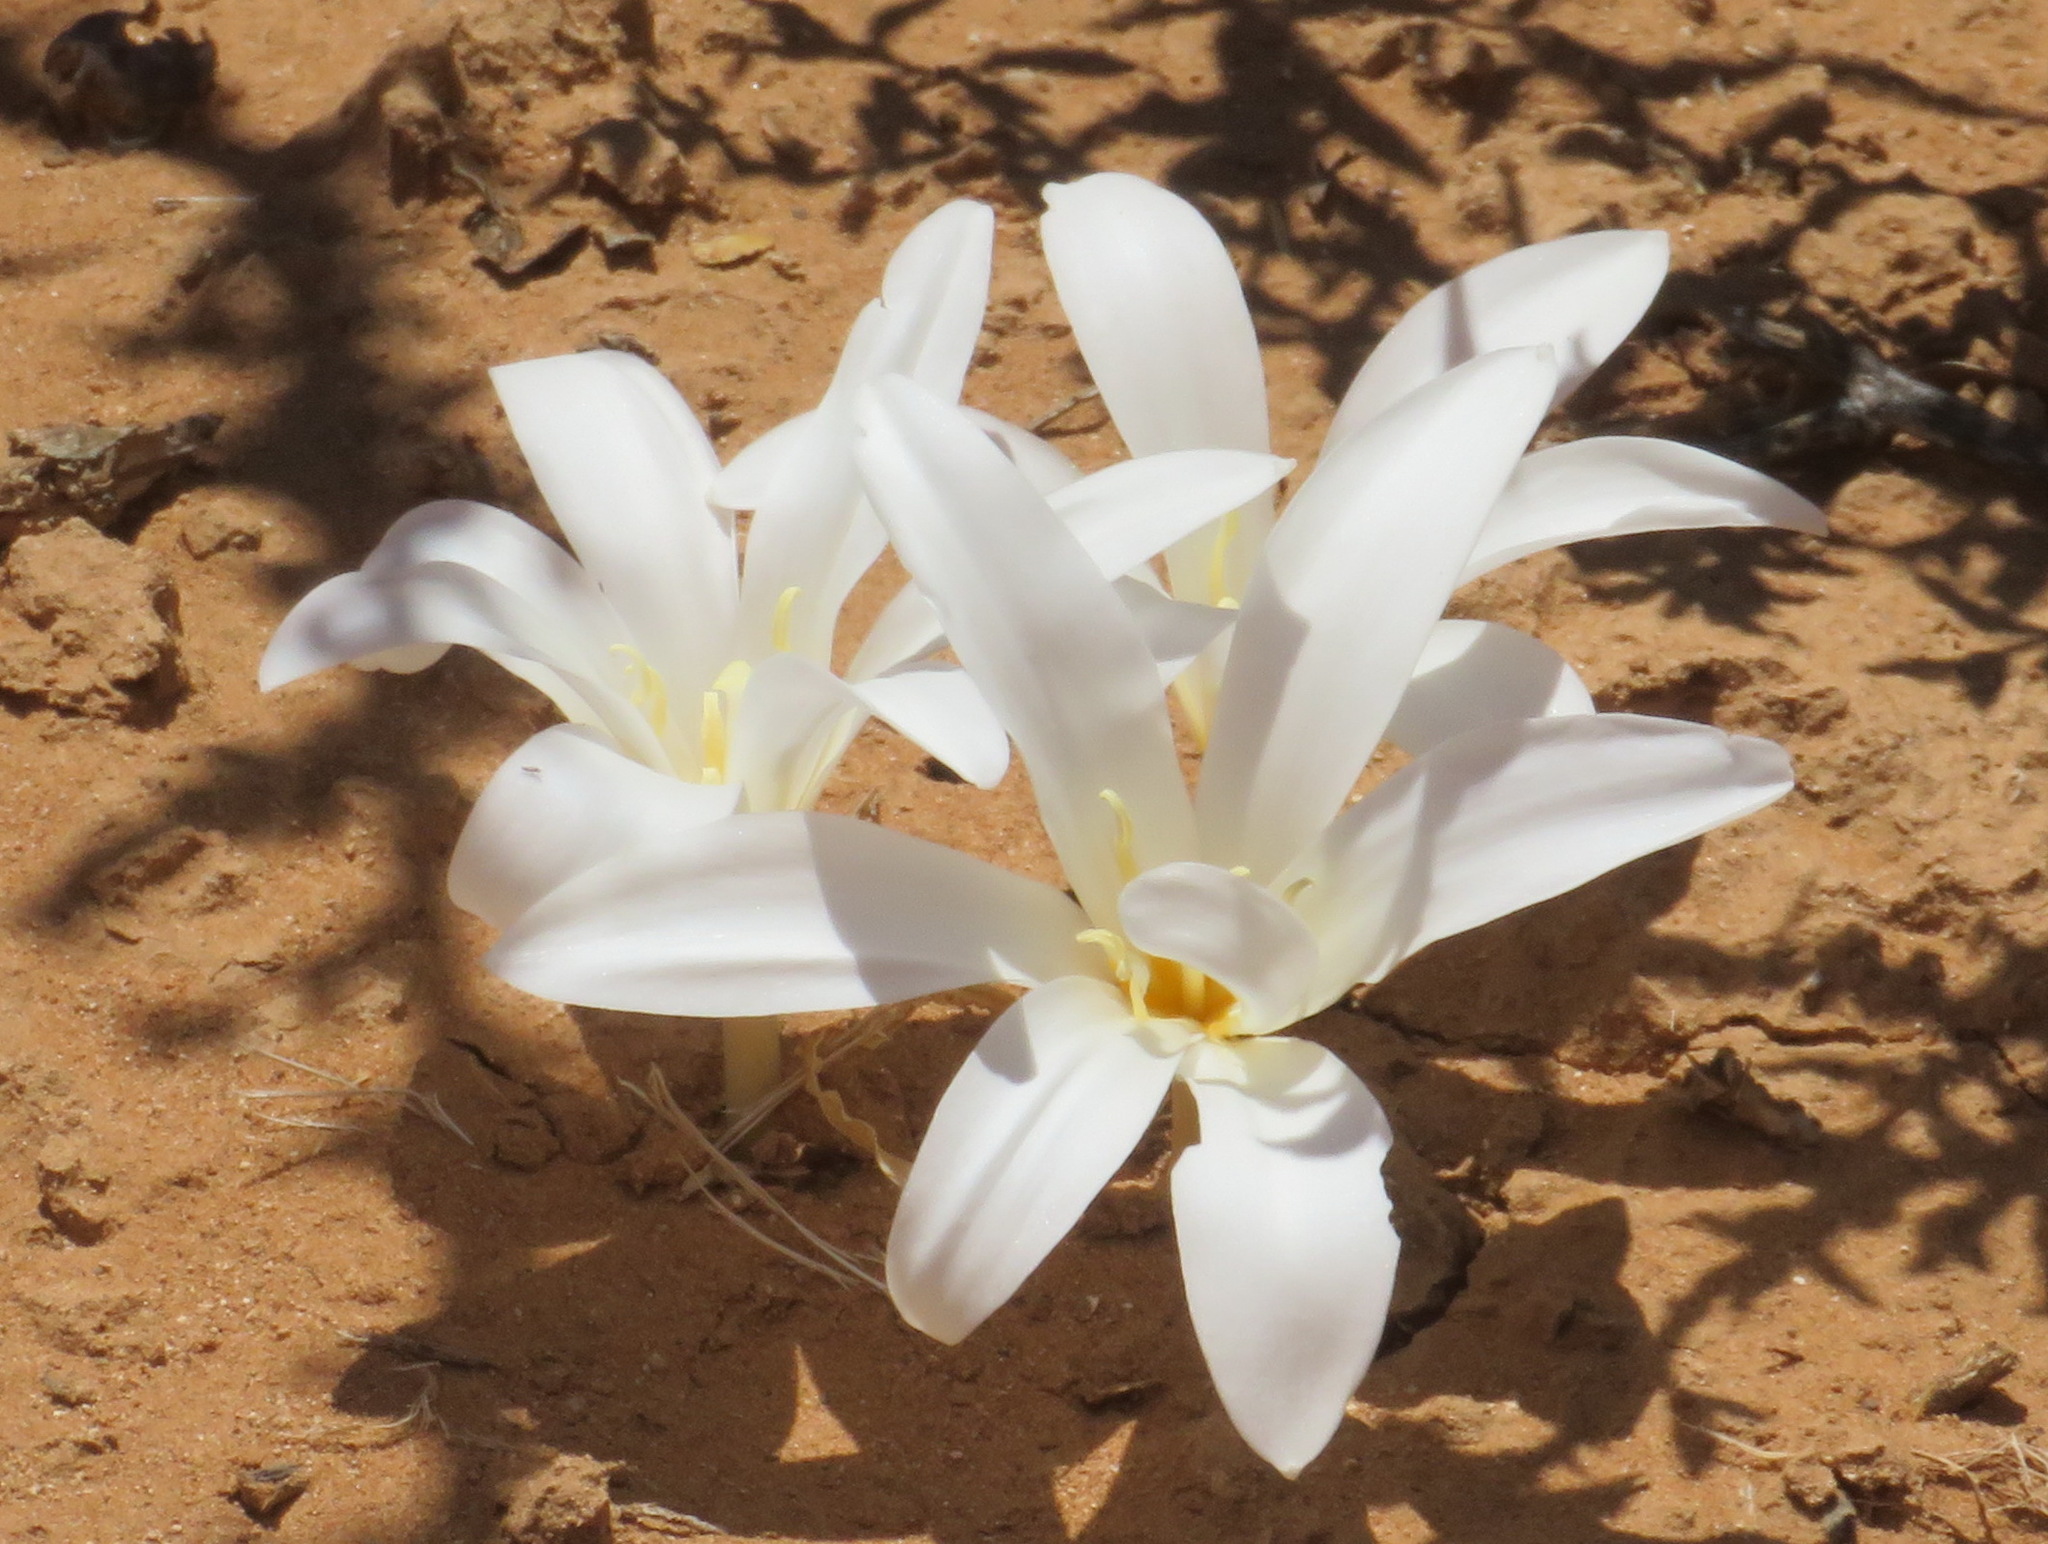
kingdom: Plantae
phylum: Tracheophyta
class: Liliopsida
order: Asparagales
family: Amaryllidaceae
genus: Apodolirion
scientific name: Apodolirion macowanii
